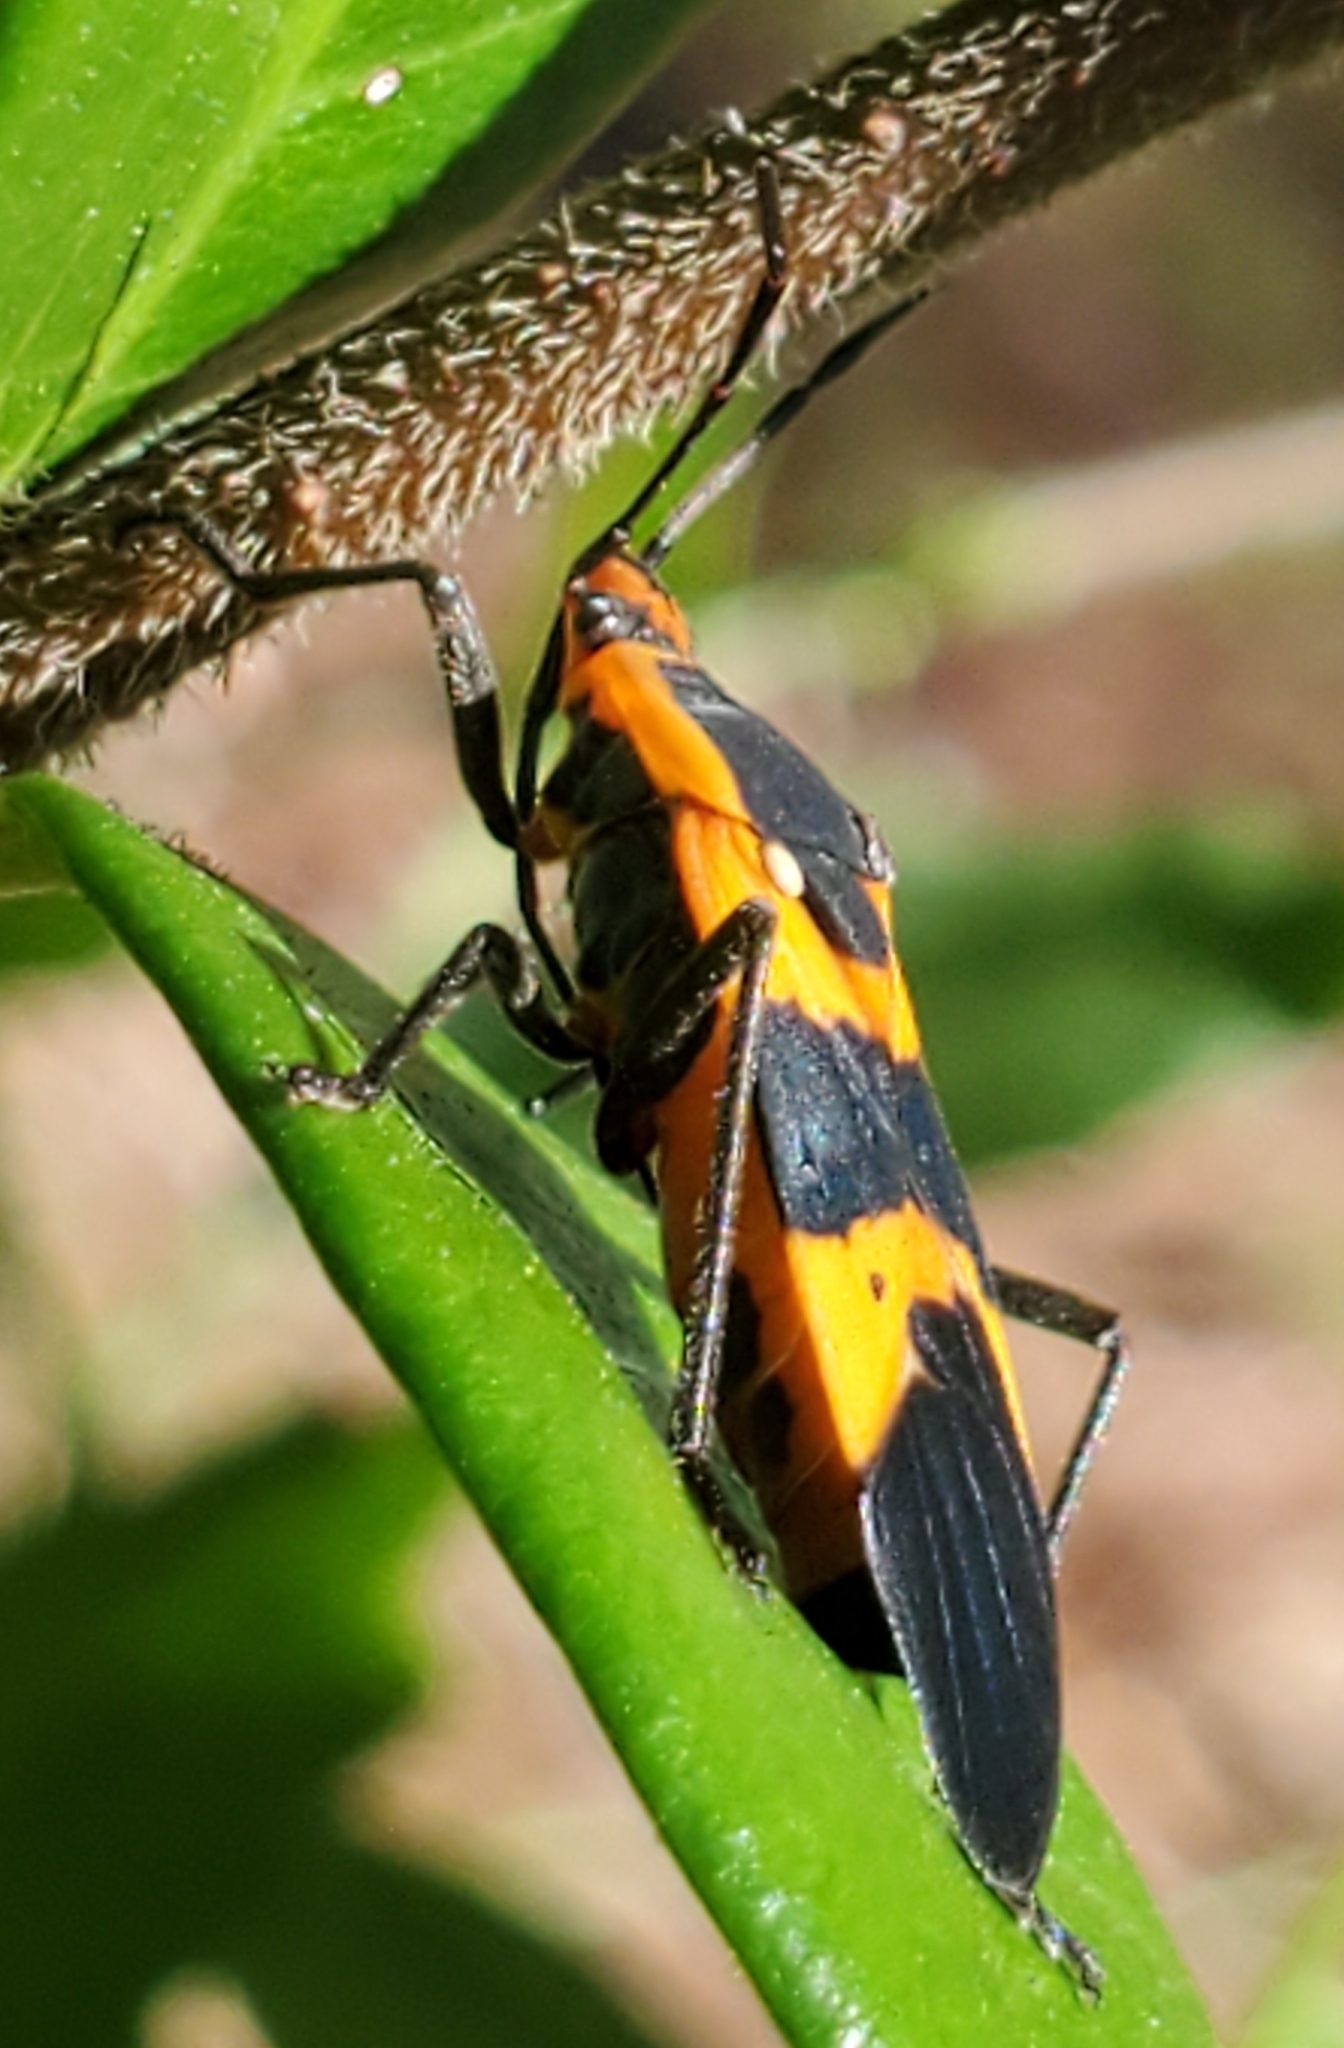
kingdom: Animalia
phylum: Arthropoda
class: Insecta
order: Hemiptera
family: Lygaeidae
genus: Oncopeltus
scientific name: Oncopeltus fasciatus
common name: Large milkweed bug
